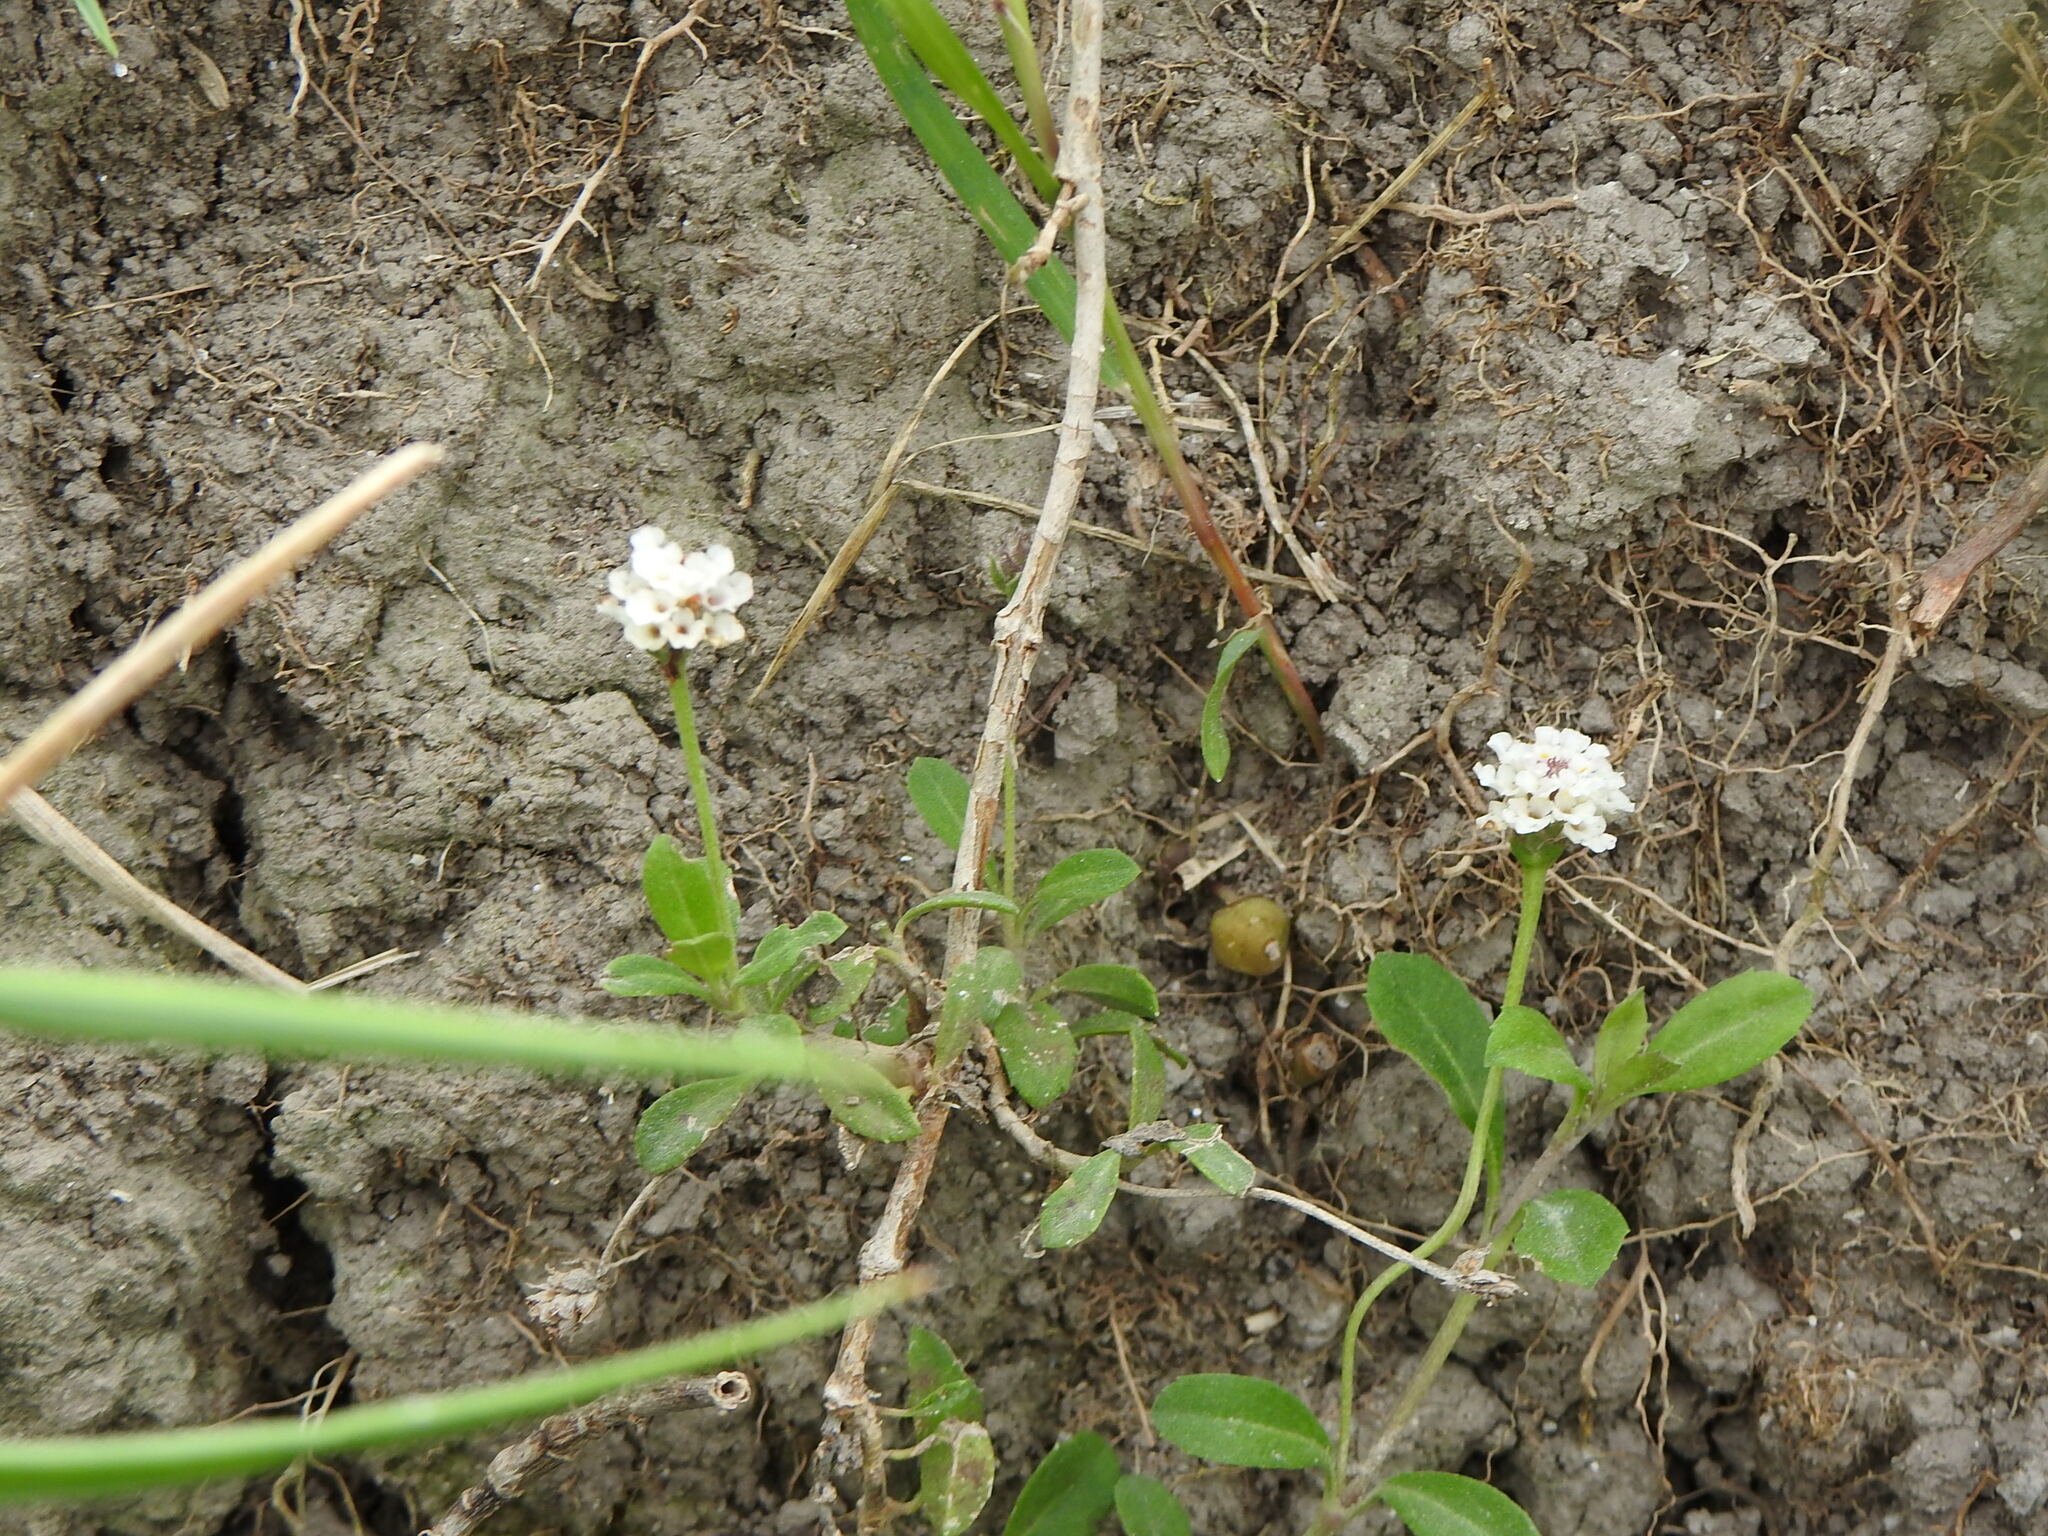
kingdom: Plantae
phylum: Tracheophyta
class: Magnoliopsida
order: Lamiales
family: Verbenaceae
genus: Phyla
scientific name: Phyla nodiflora
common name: Frogfruit
